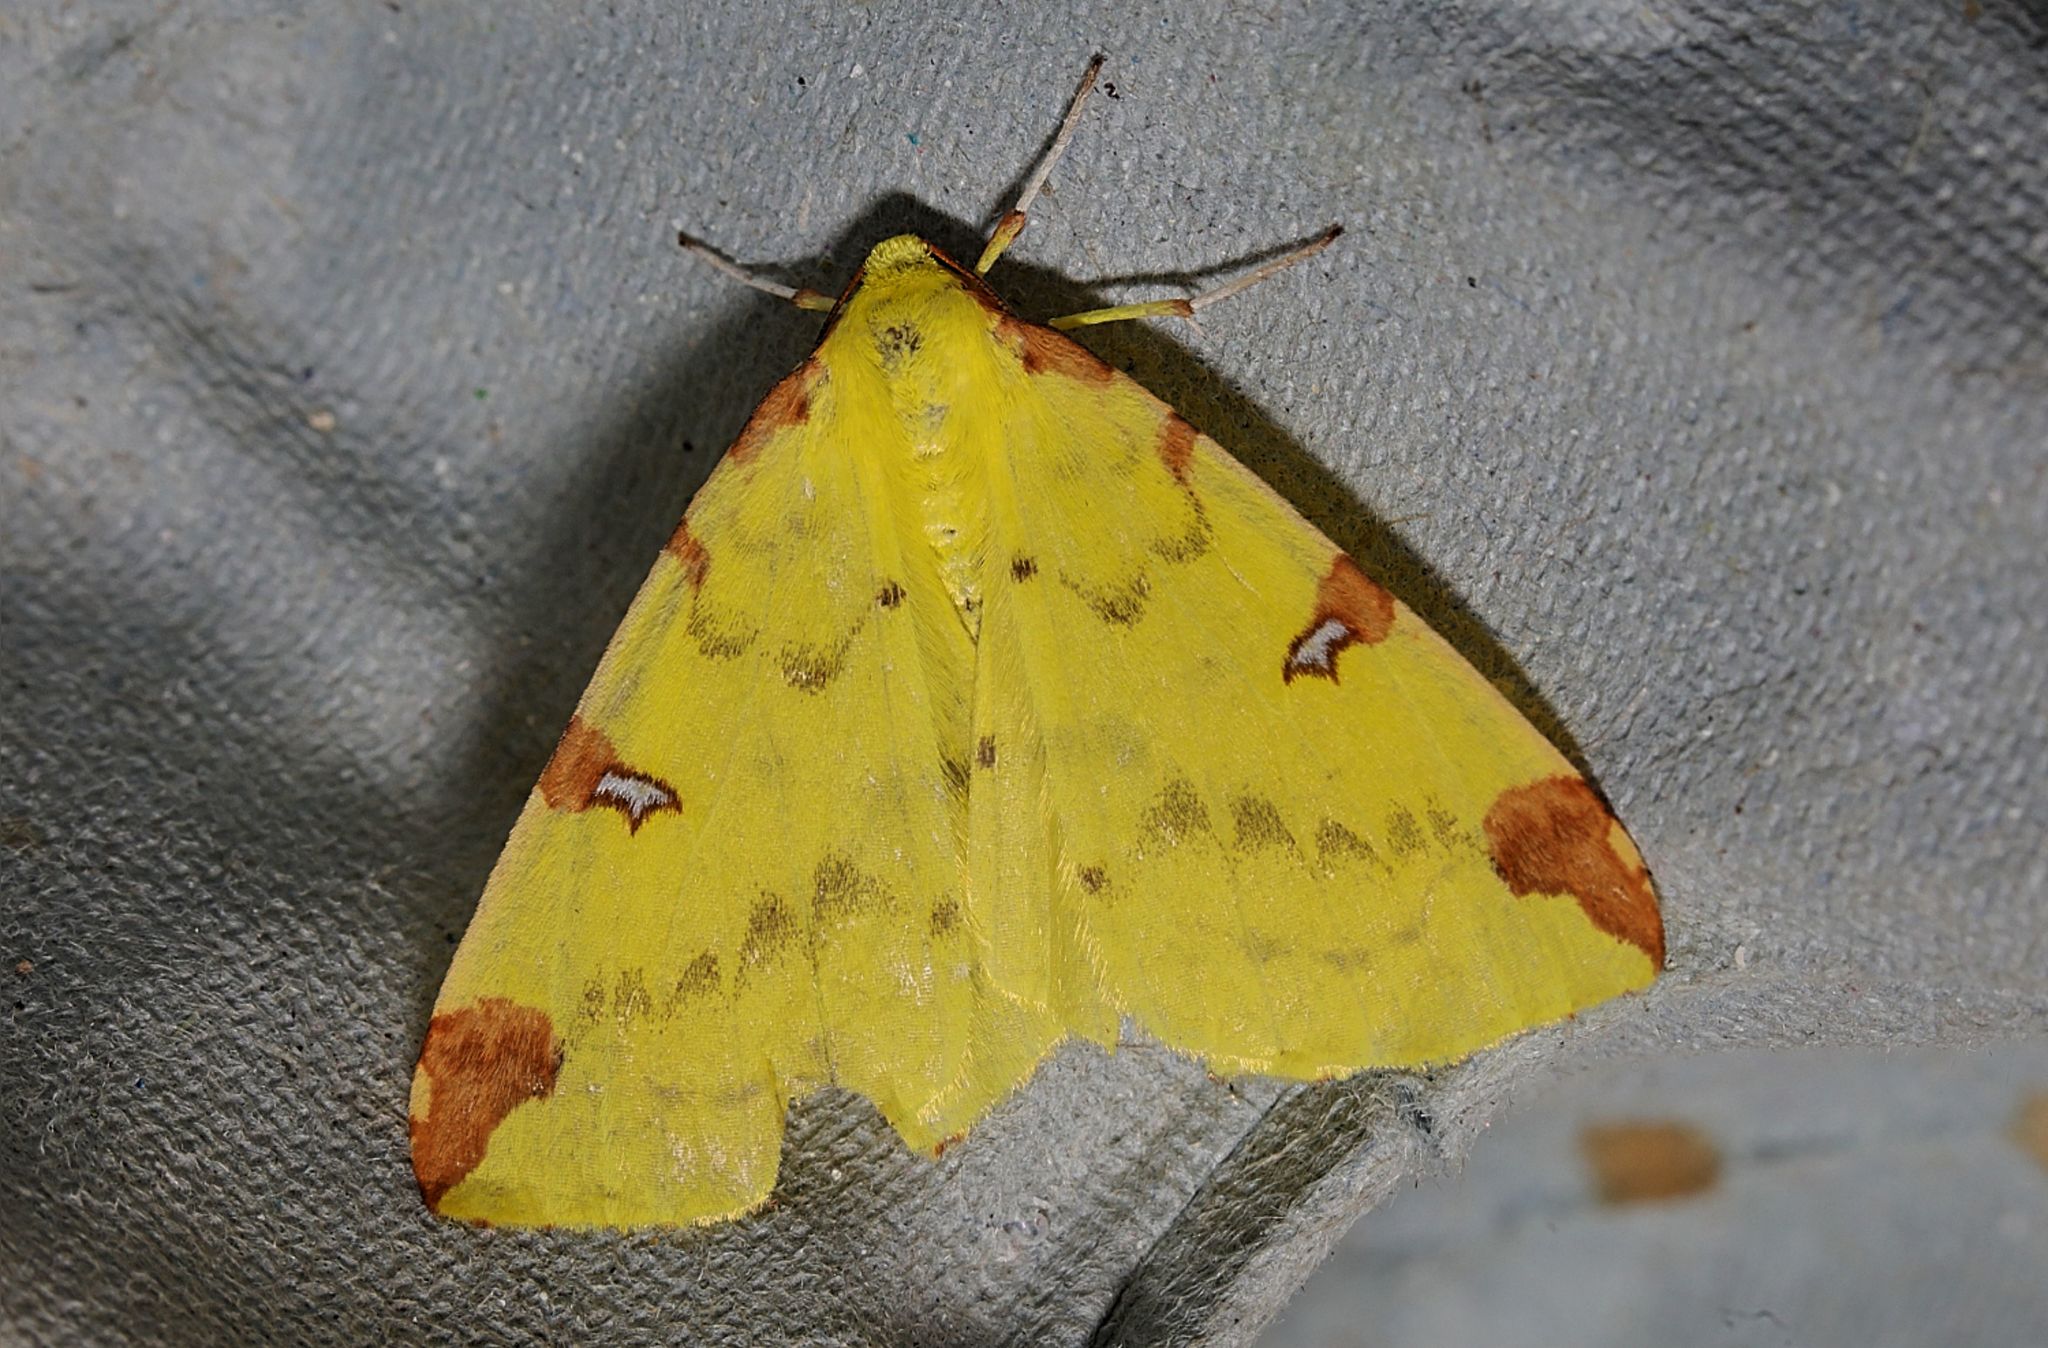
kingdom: Animalia
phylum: Arthropoda
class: Insecta
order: Lepidoptera
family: Geometridae
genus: Opisthograptis
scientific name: Opisthograptis luteolata
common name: Brimstone moth
